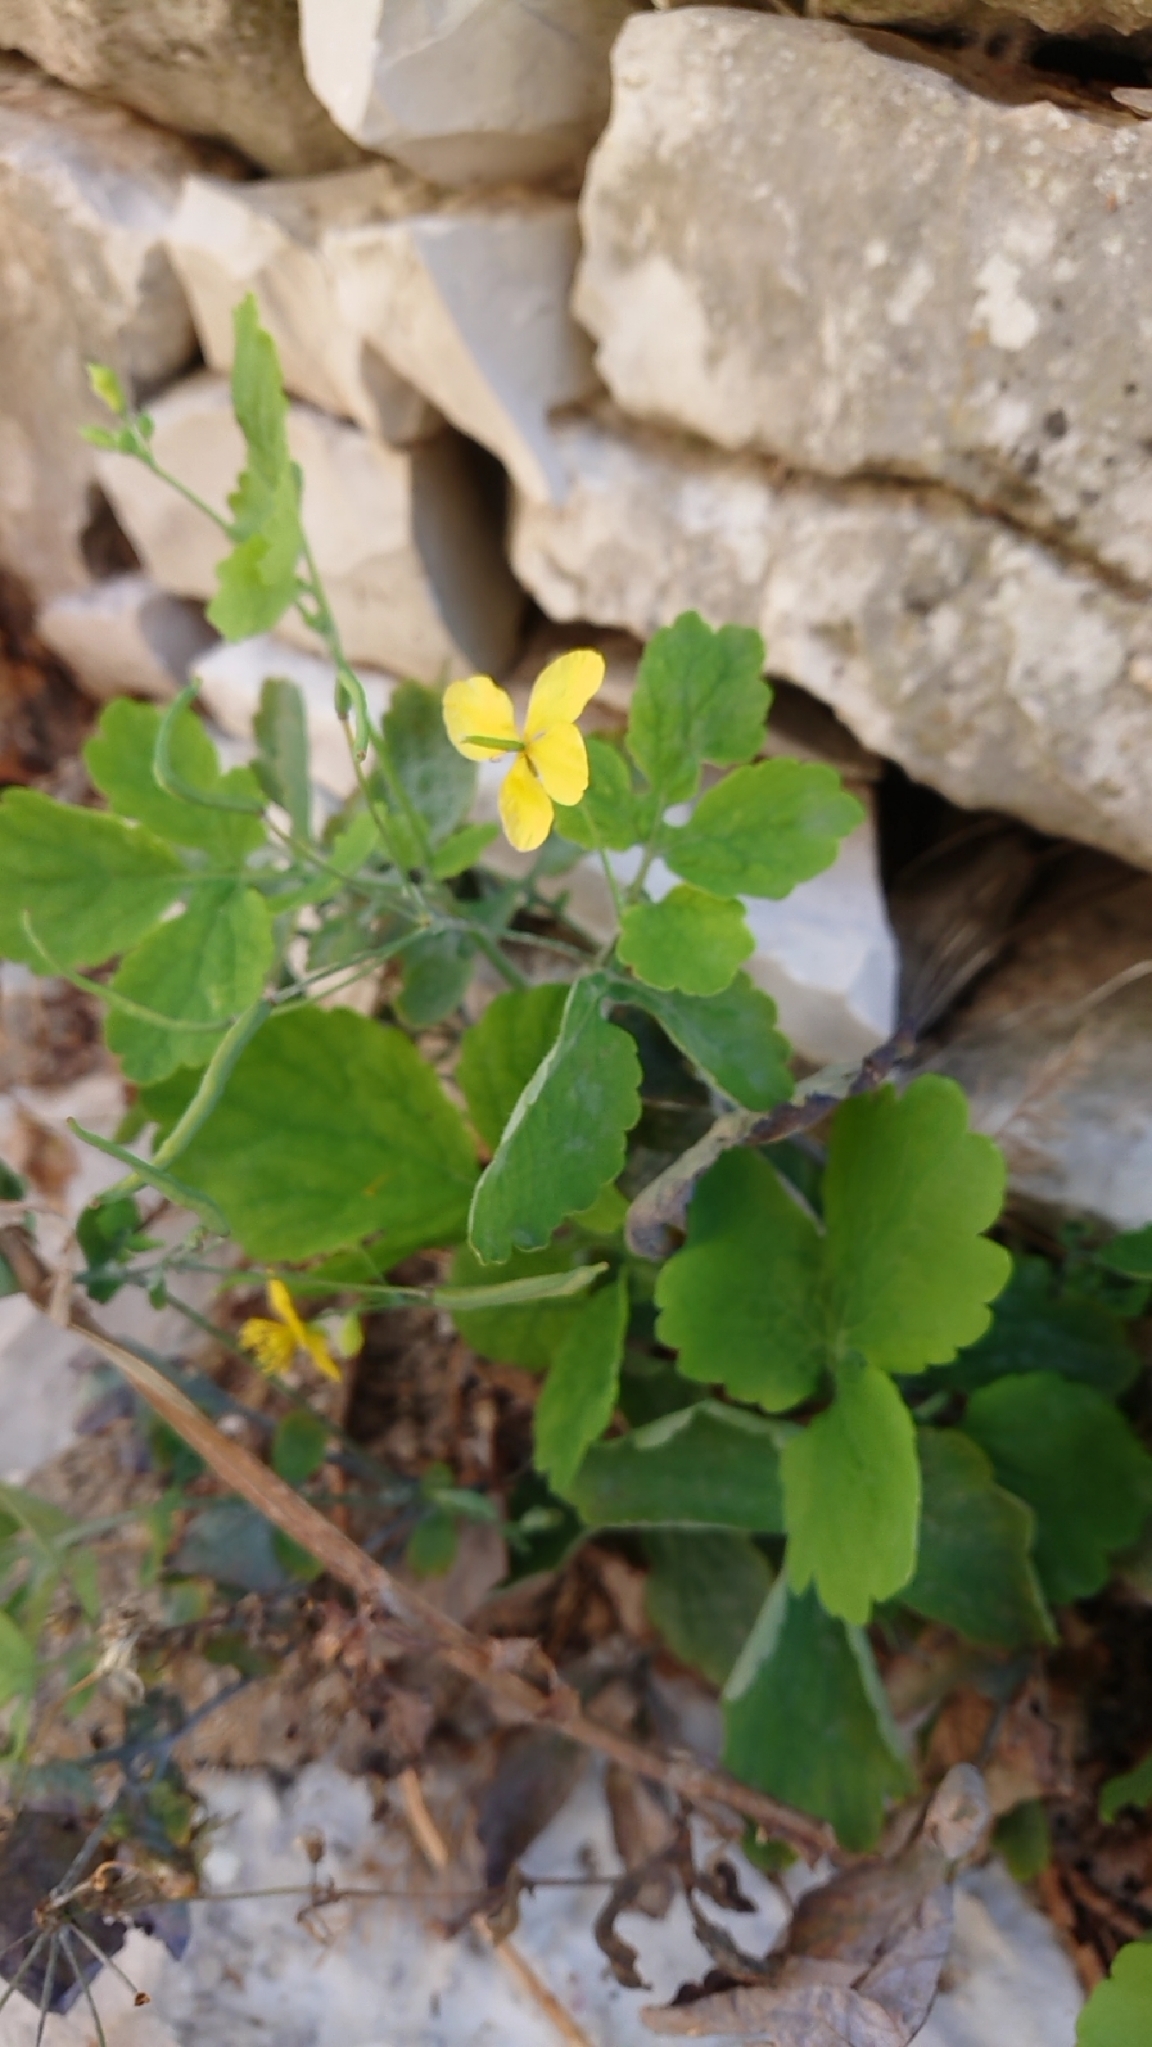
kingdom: Plantae
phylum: Tracheophyta
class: Magnoliopsida
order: Ranunculales
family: Papaveraceae
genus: Chelidonium
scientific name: Chelidonium majus
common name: Greater celandine
